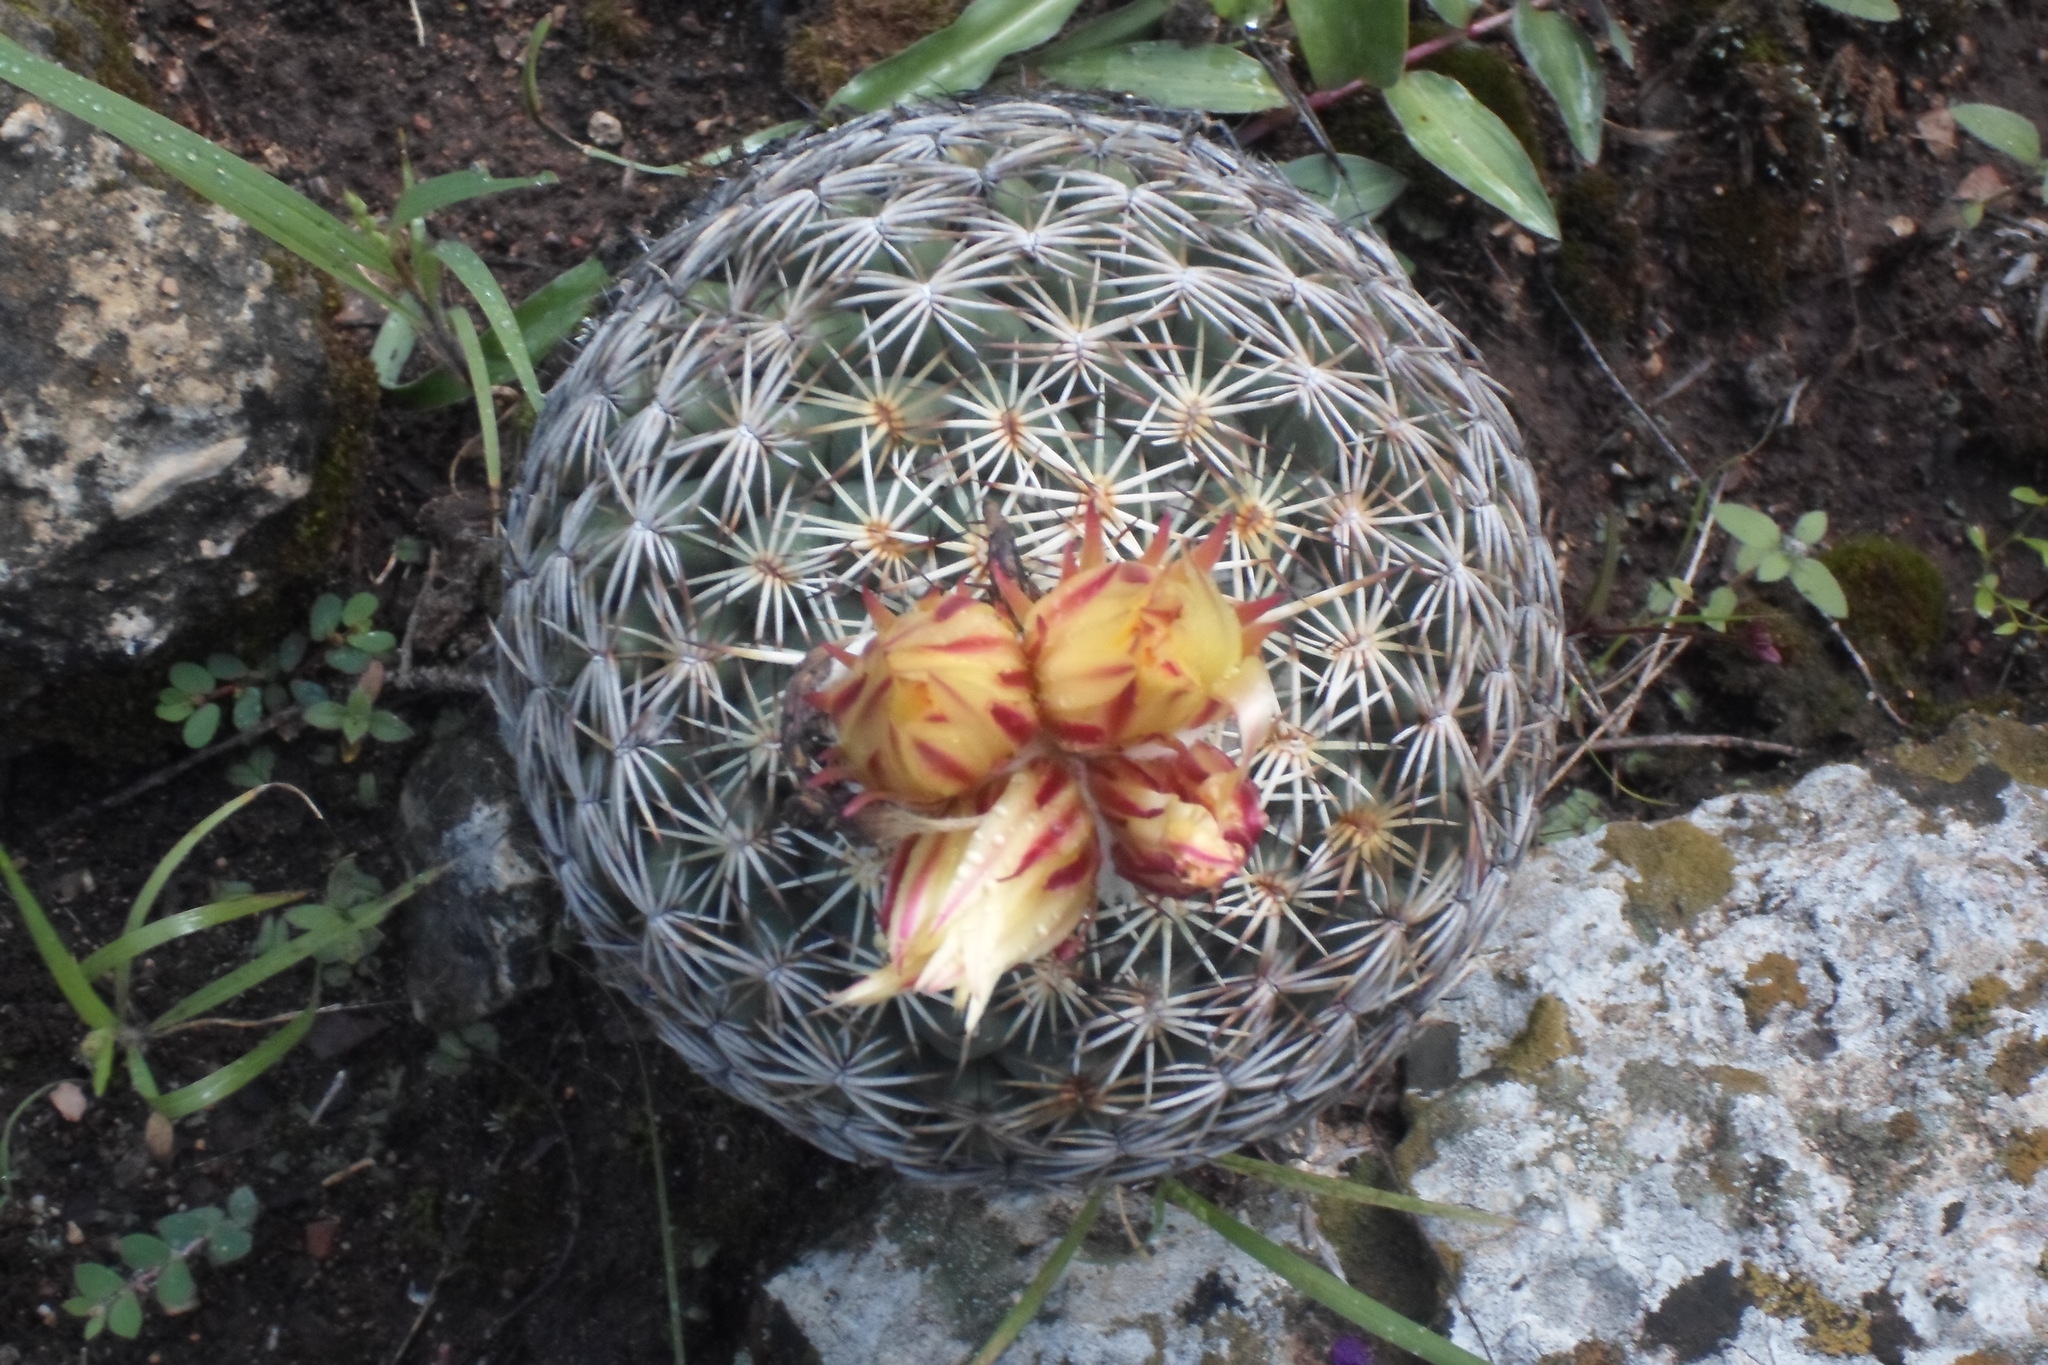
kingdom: Plantae
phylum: Tracheophyta
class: Magnoliopsida
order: Caryophyllales
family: Cactaceae
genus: Coryphantha
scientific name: Coryphantha retusa
